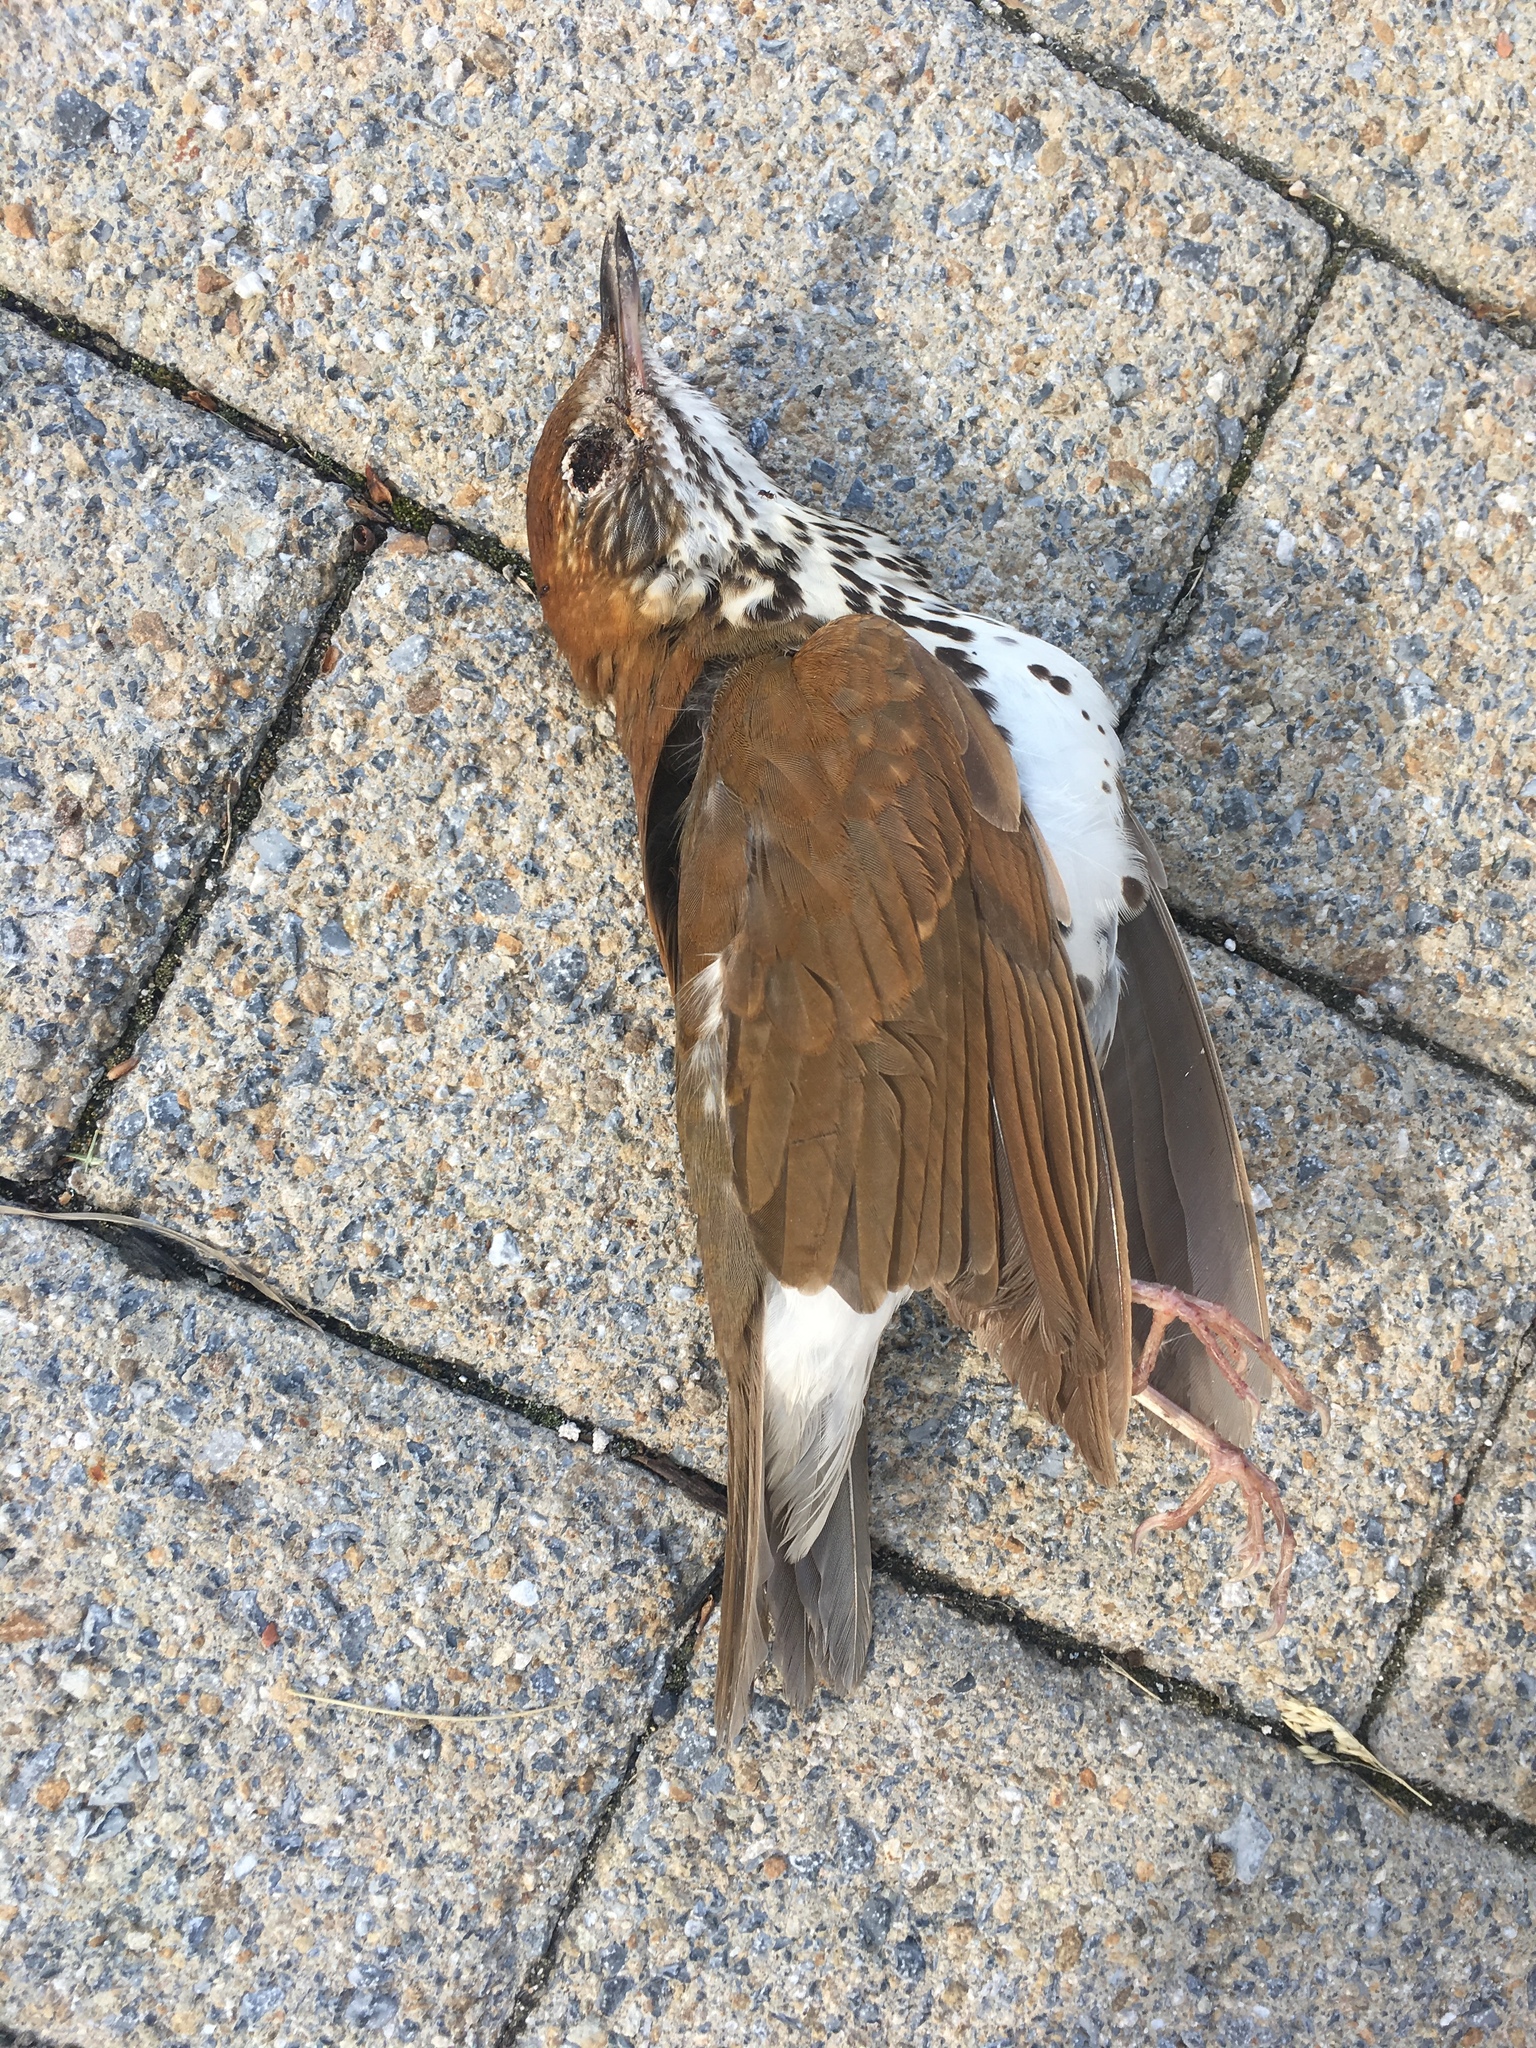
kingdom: Animalia
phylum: Chordata
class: Aves
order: Passeriformes
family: Turdidae
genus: Hylocichla
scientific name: Hylocichla mustelina
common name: Wood thrush
